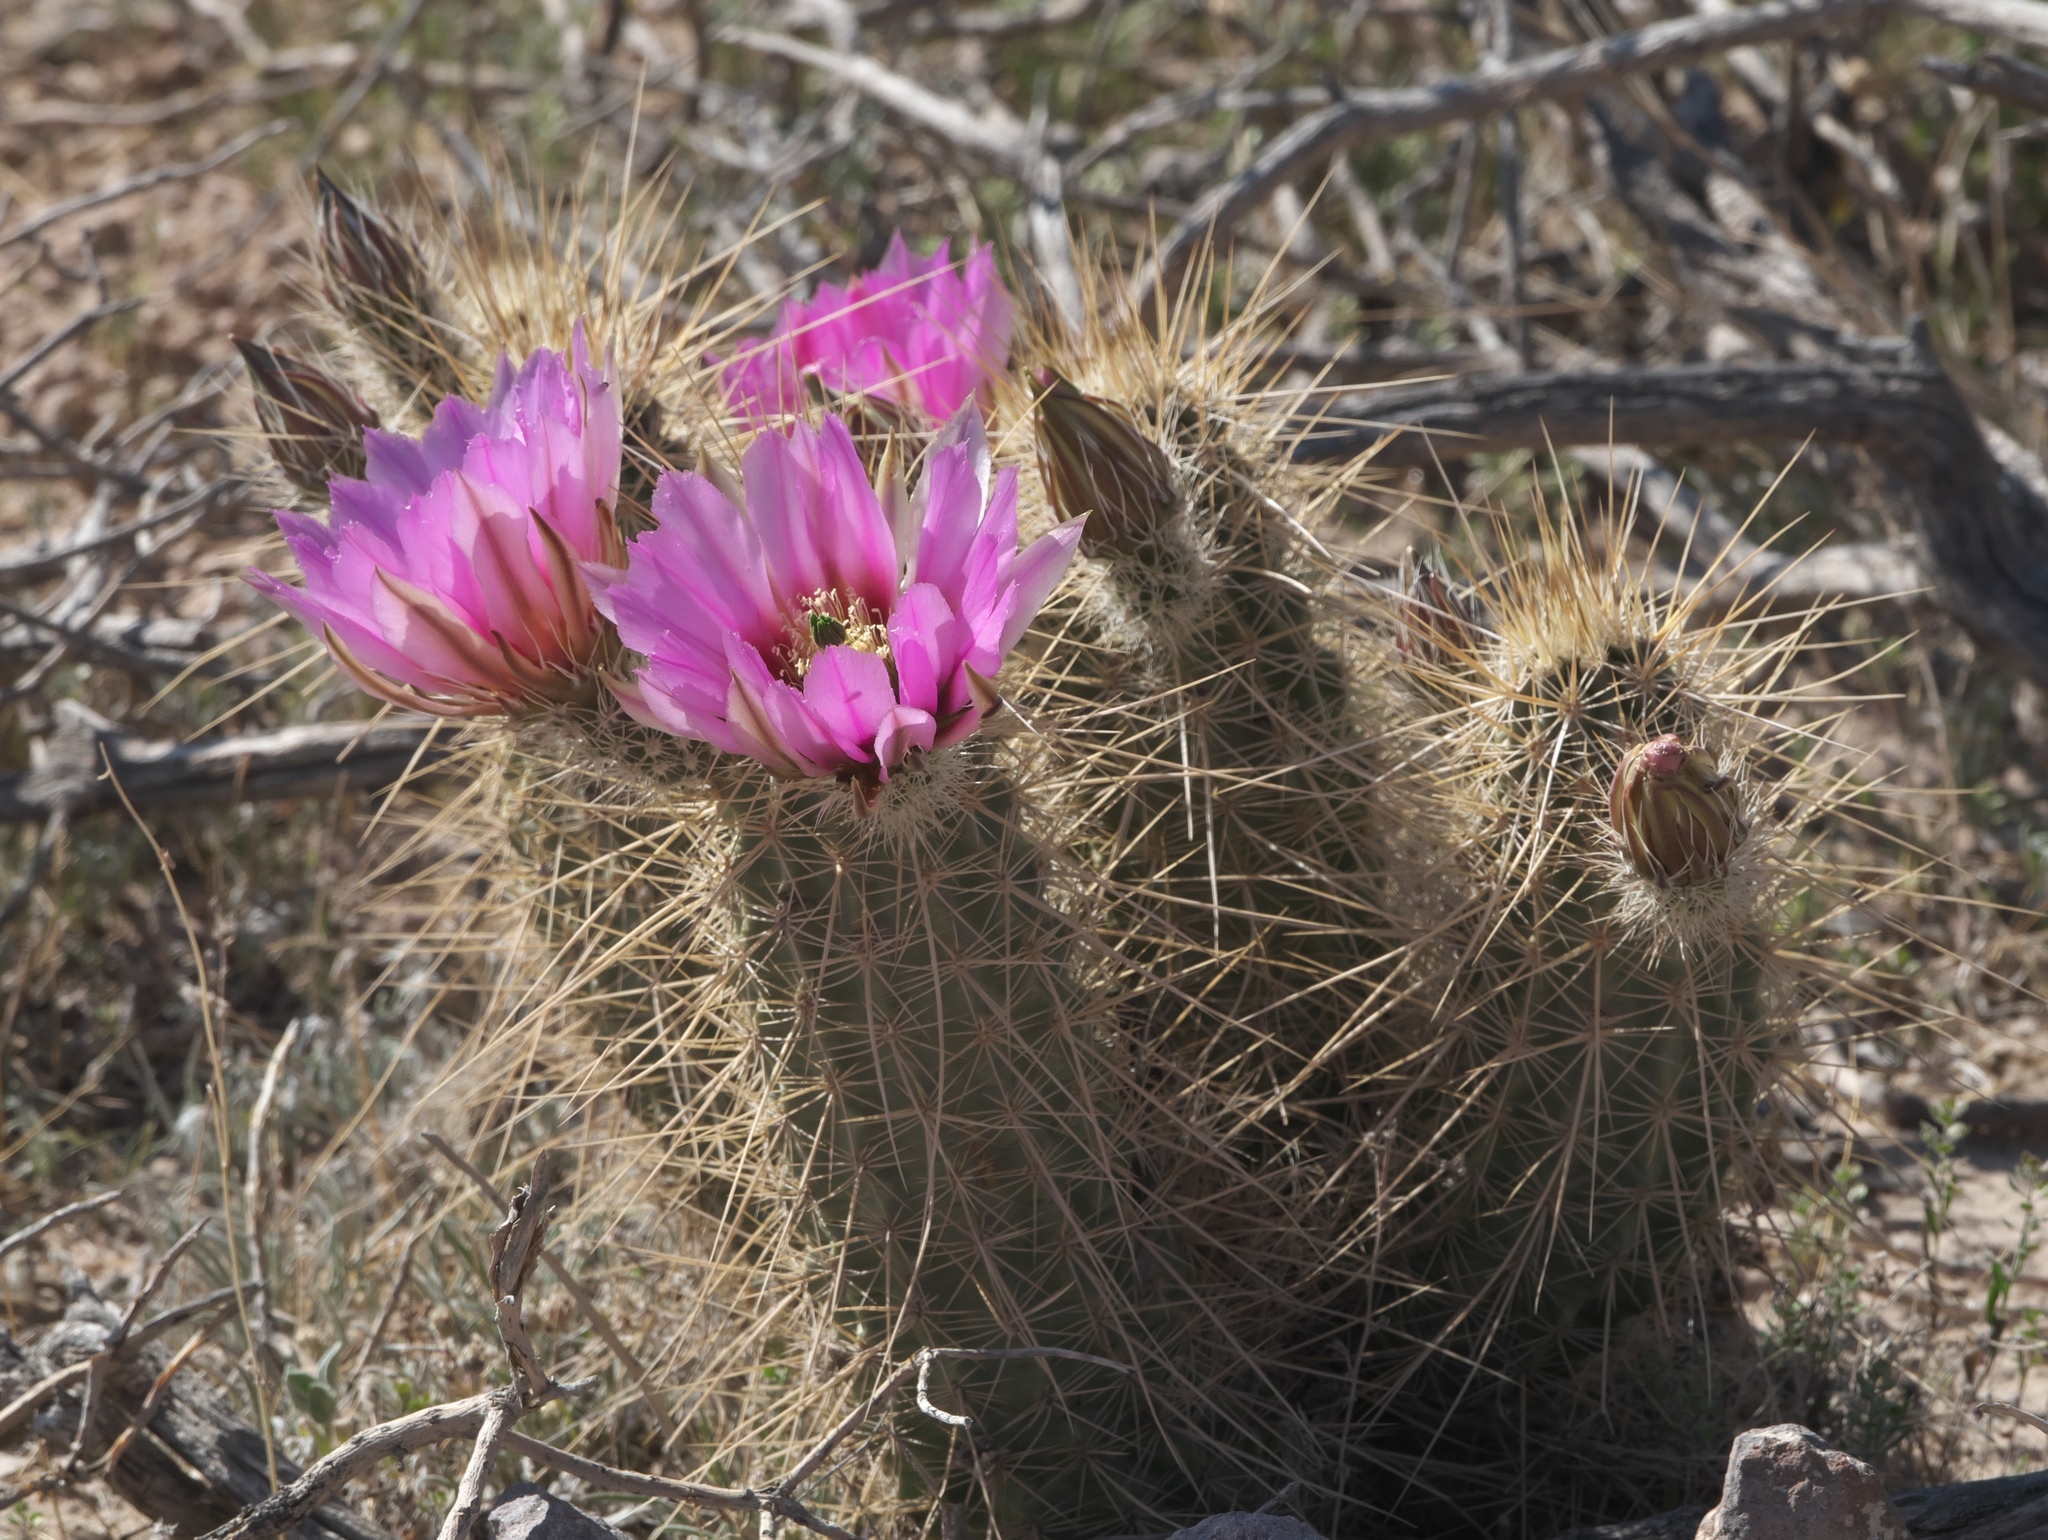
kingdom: Plantae
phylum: Tracheophyta
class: Magnoliopsida
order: Caryophyllales
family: Cactaceae
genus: Echinocereus
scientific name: Echinocereus engelmannii
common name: Engelmann's hedgehog cactus
